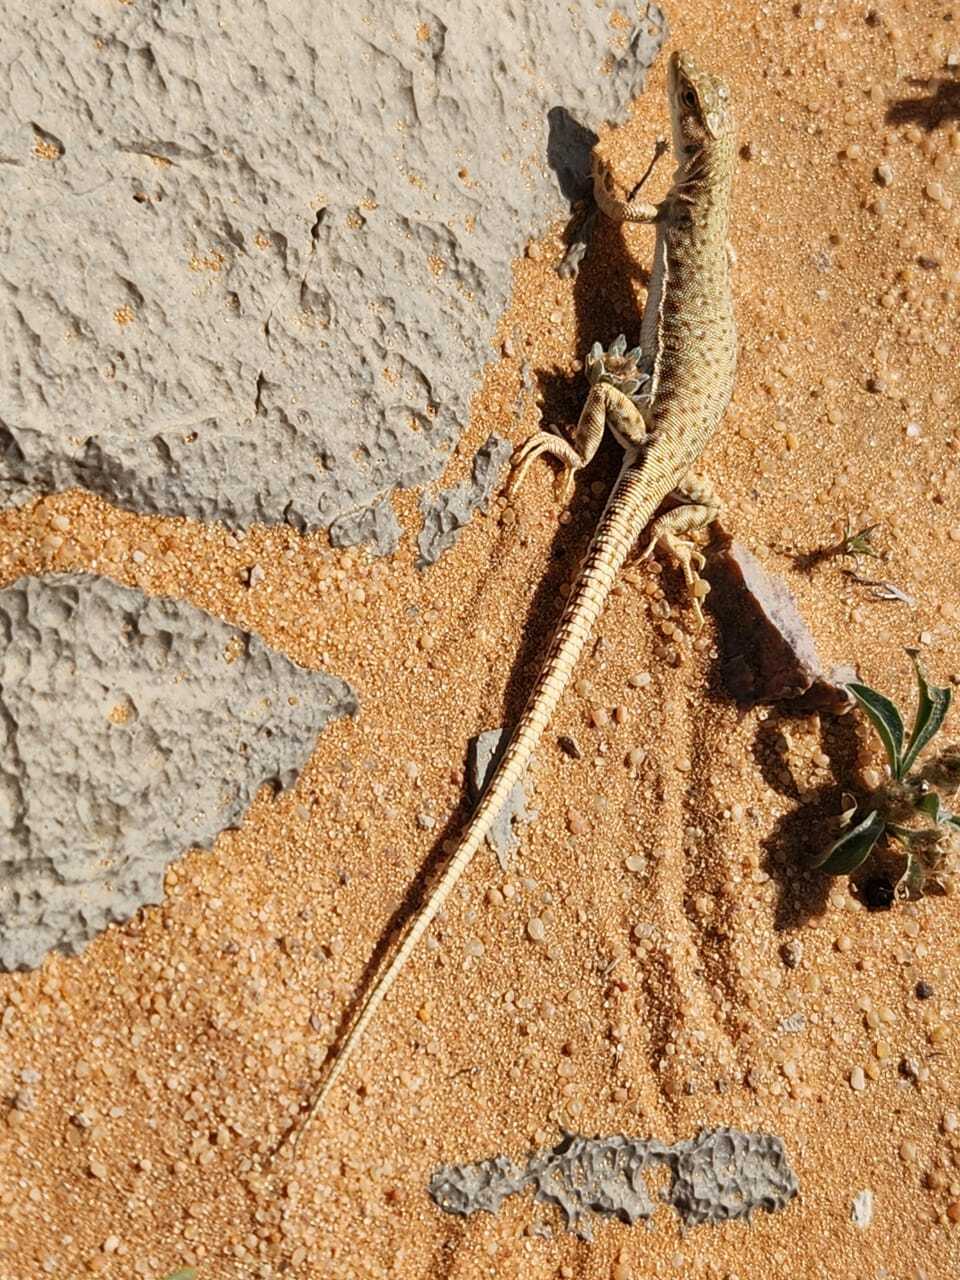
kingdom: Animalia
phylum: Chordata
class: Squamata
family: Lacertidae
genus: Mesalina
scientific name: Mesalina brevirostris
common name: Blanford's short-nosed desert lizard
